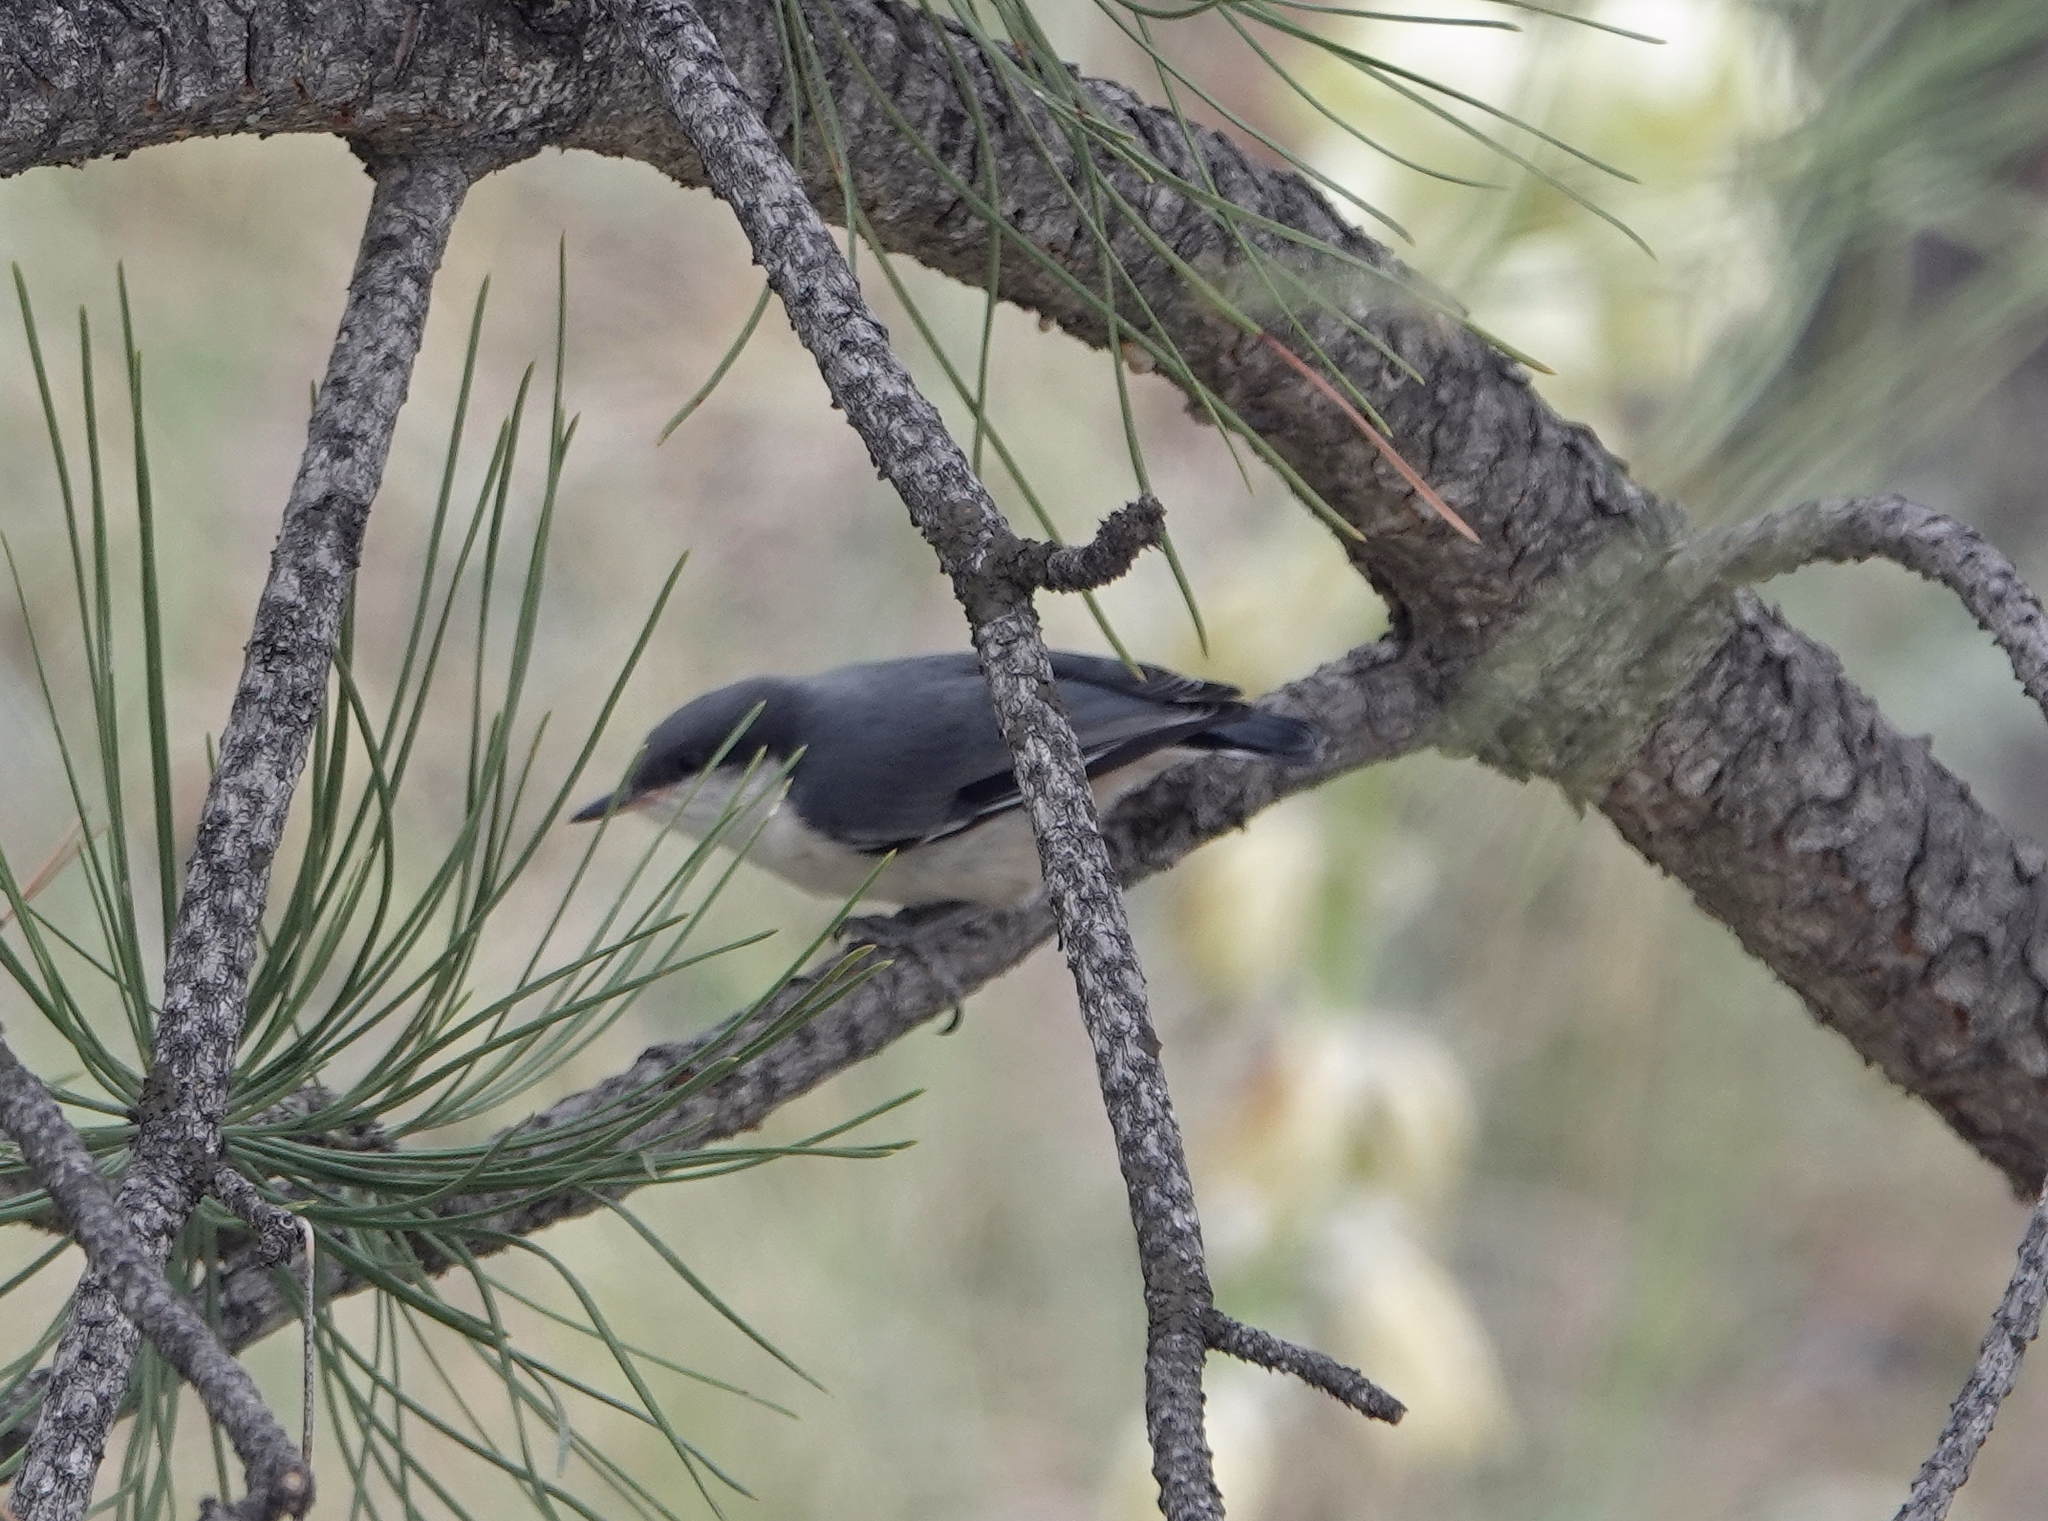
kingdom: Animalia
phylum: Chordata
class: Aves
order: Passeriformes
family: Sittidae
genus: Sitta
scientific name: Sitta pygmaea
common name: Pygmy nuthatch
